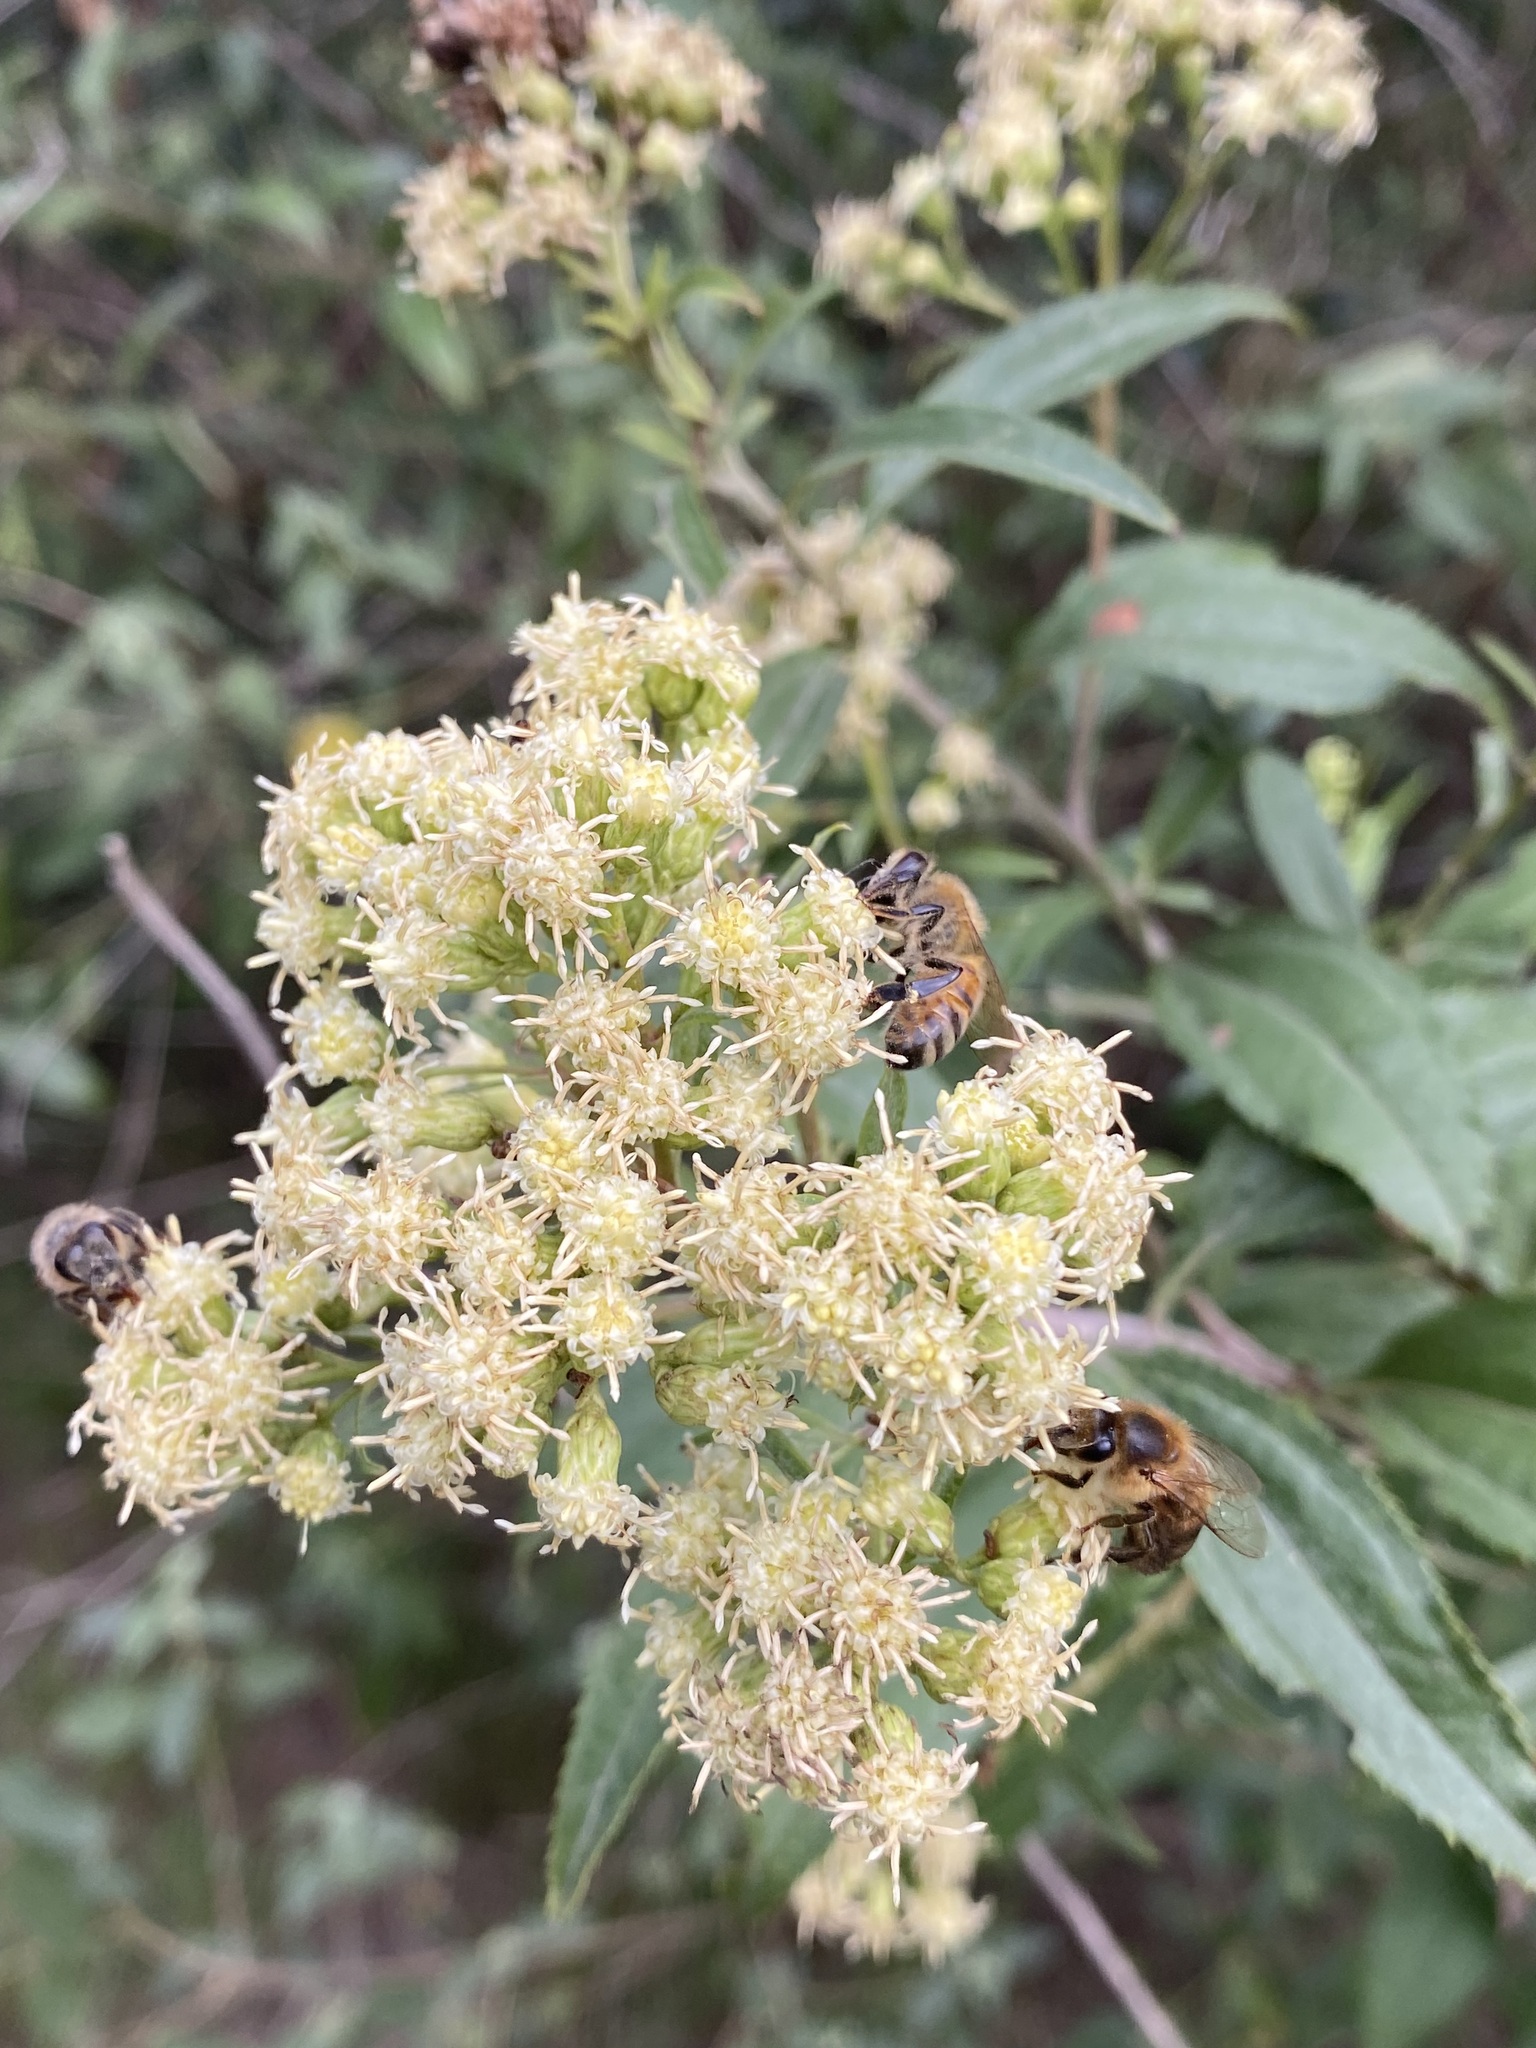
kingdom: Animalia
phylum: Arthropoda
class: Insecta
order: Hymenoptera
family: Apidae
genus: Apis
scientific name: Apis mellifera
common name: Honey bee
